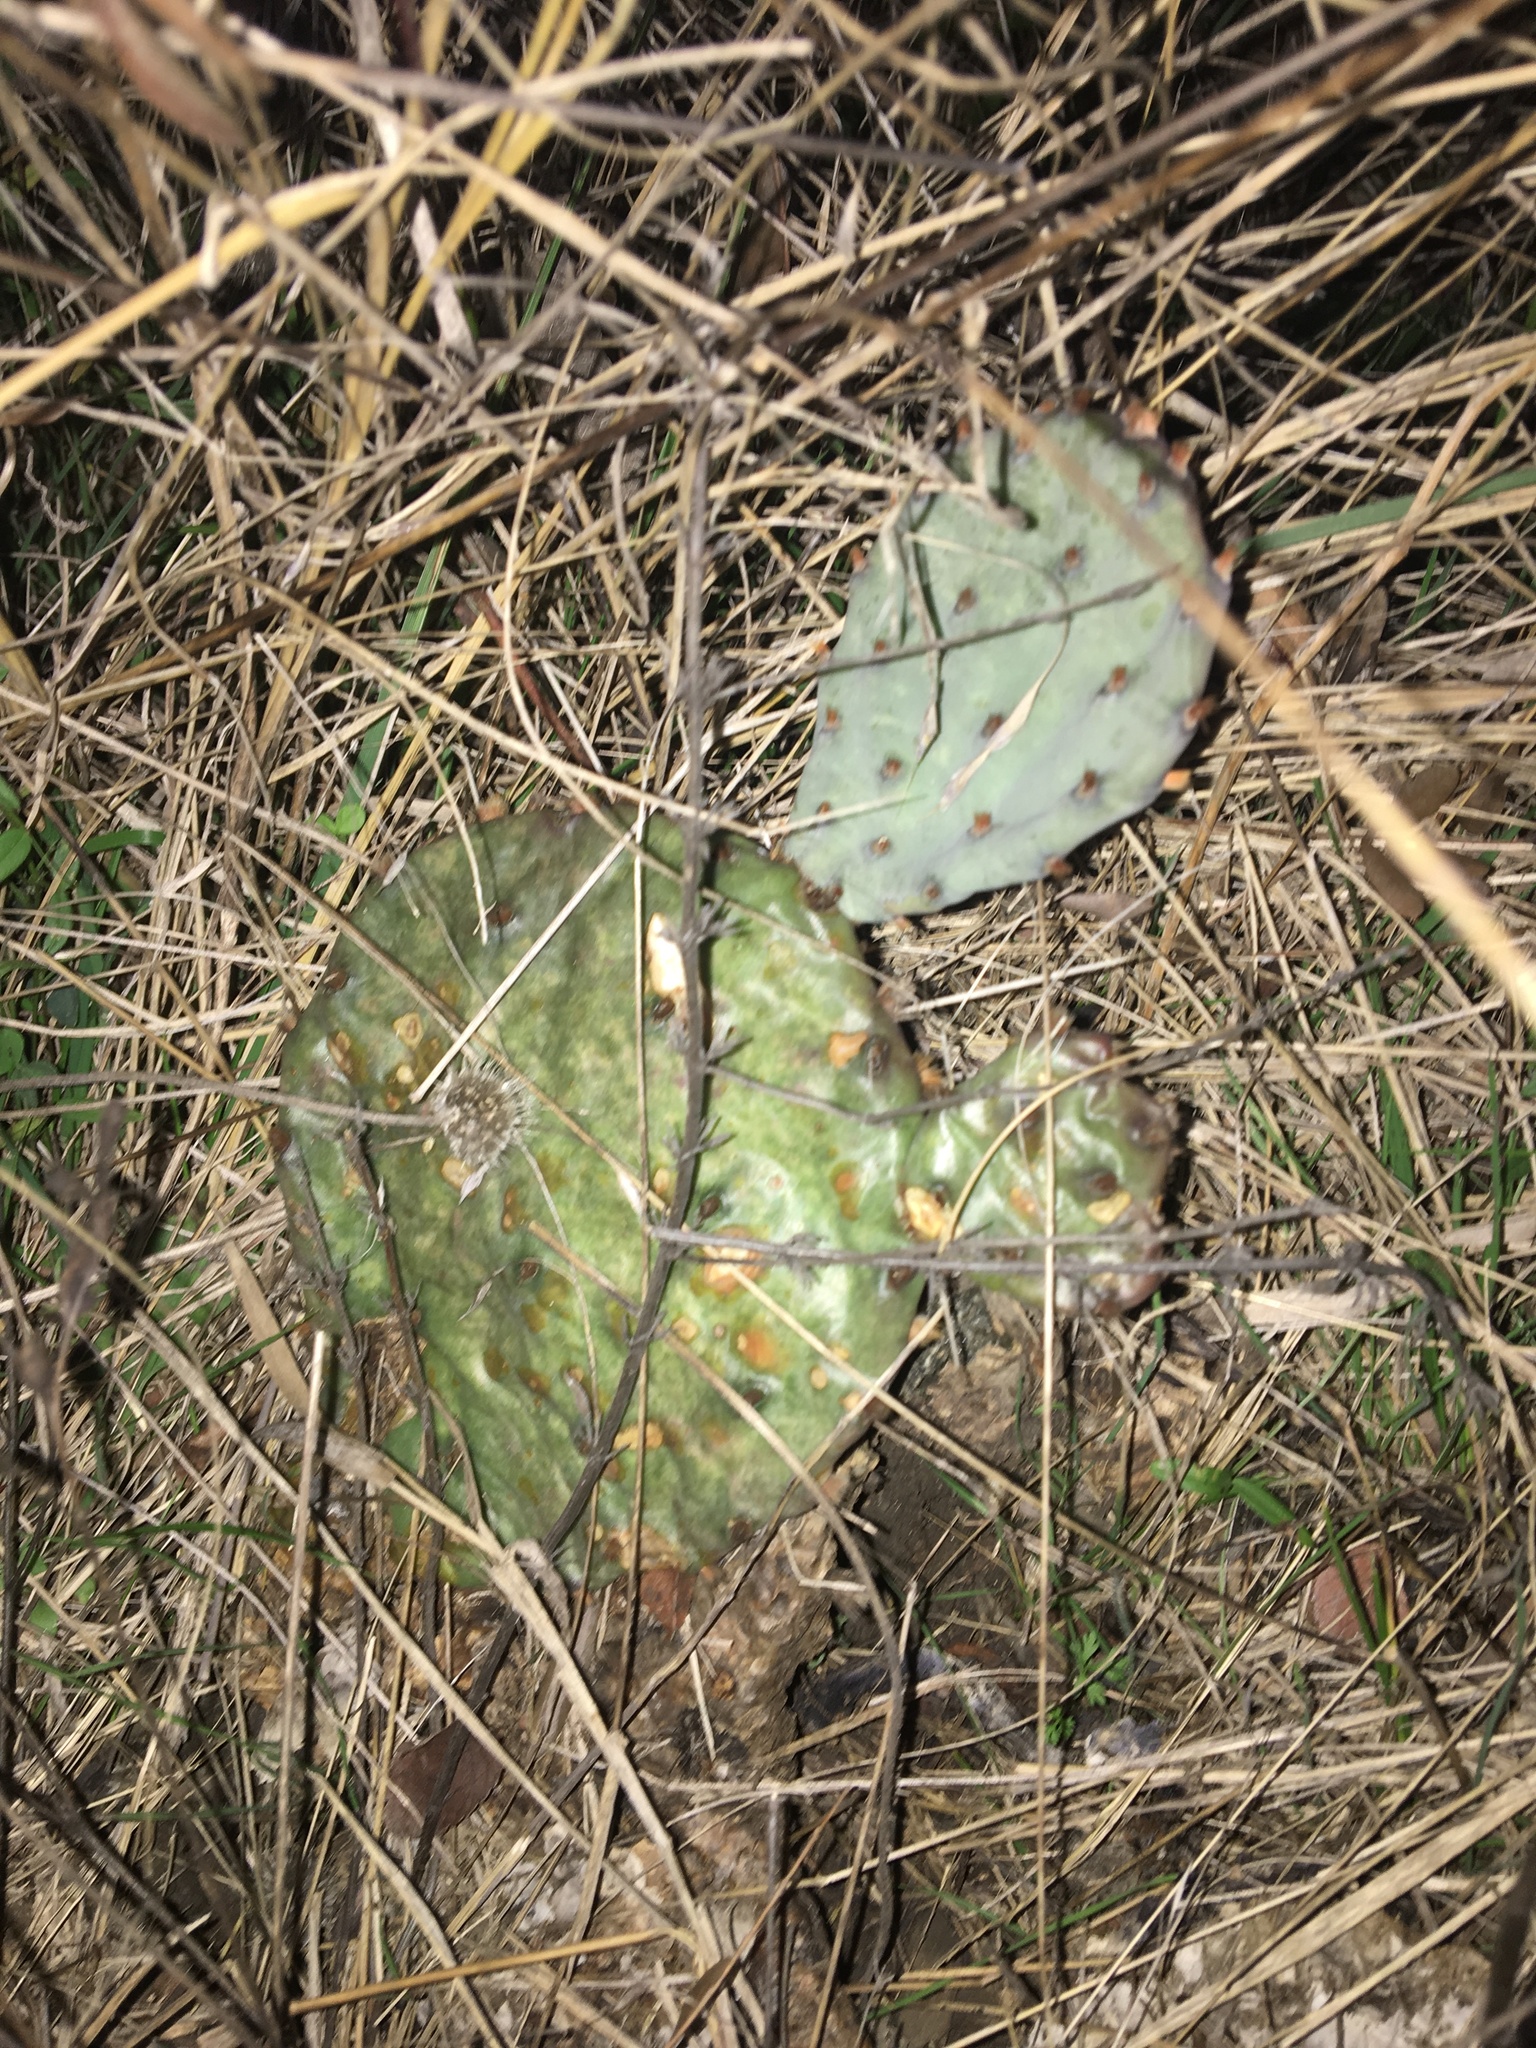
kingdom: Plantae
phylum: Tracheophyta
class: Magnoliopsida
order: Caryophyllales
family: Cactaceae
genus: Opuntia
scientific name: Opuntia macrorhiza
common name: Grassland pricklypear
